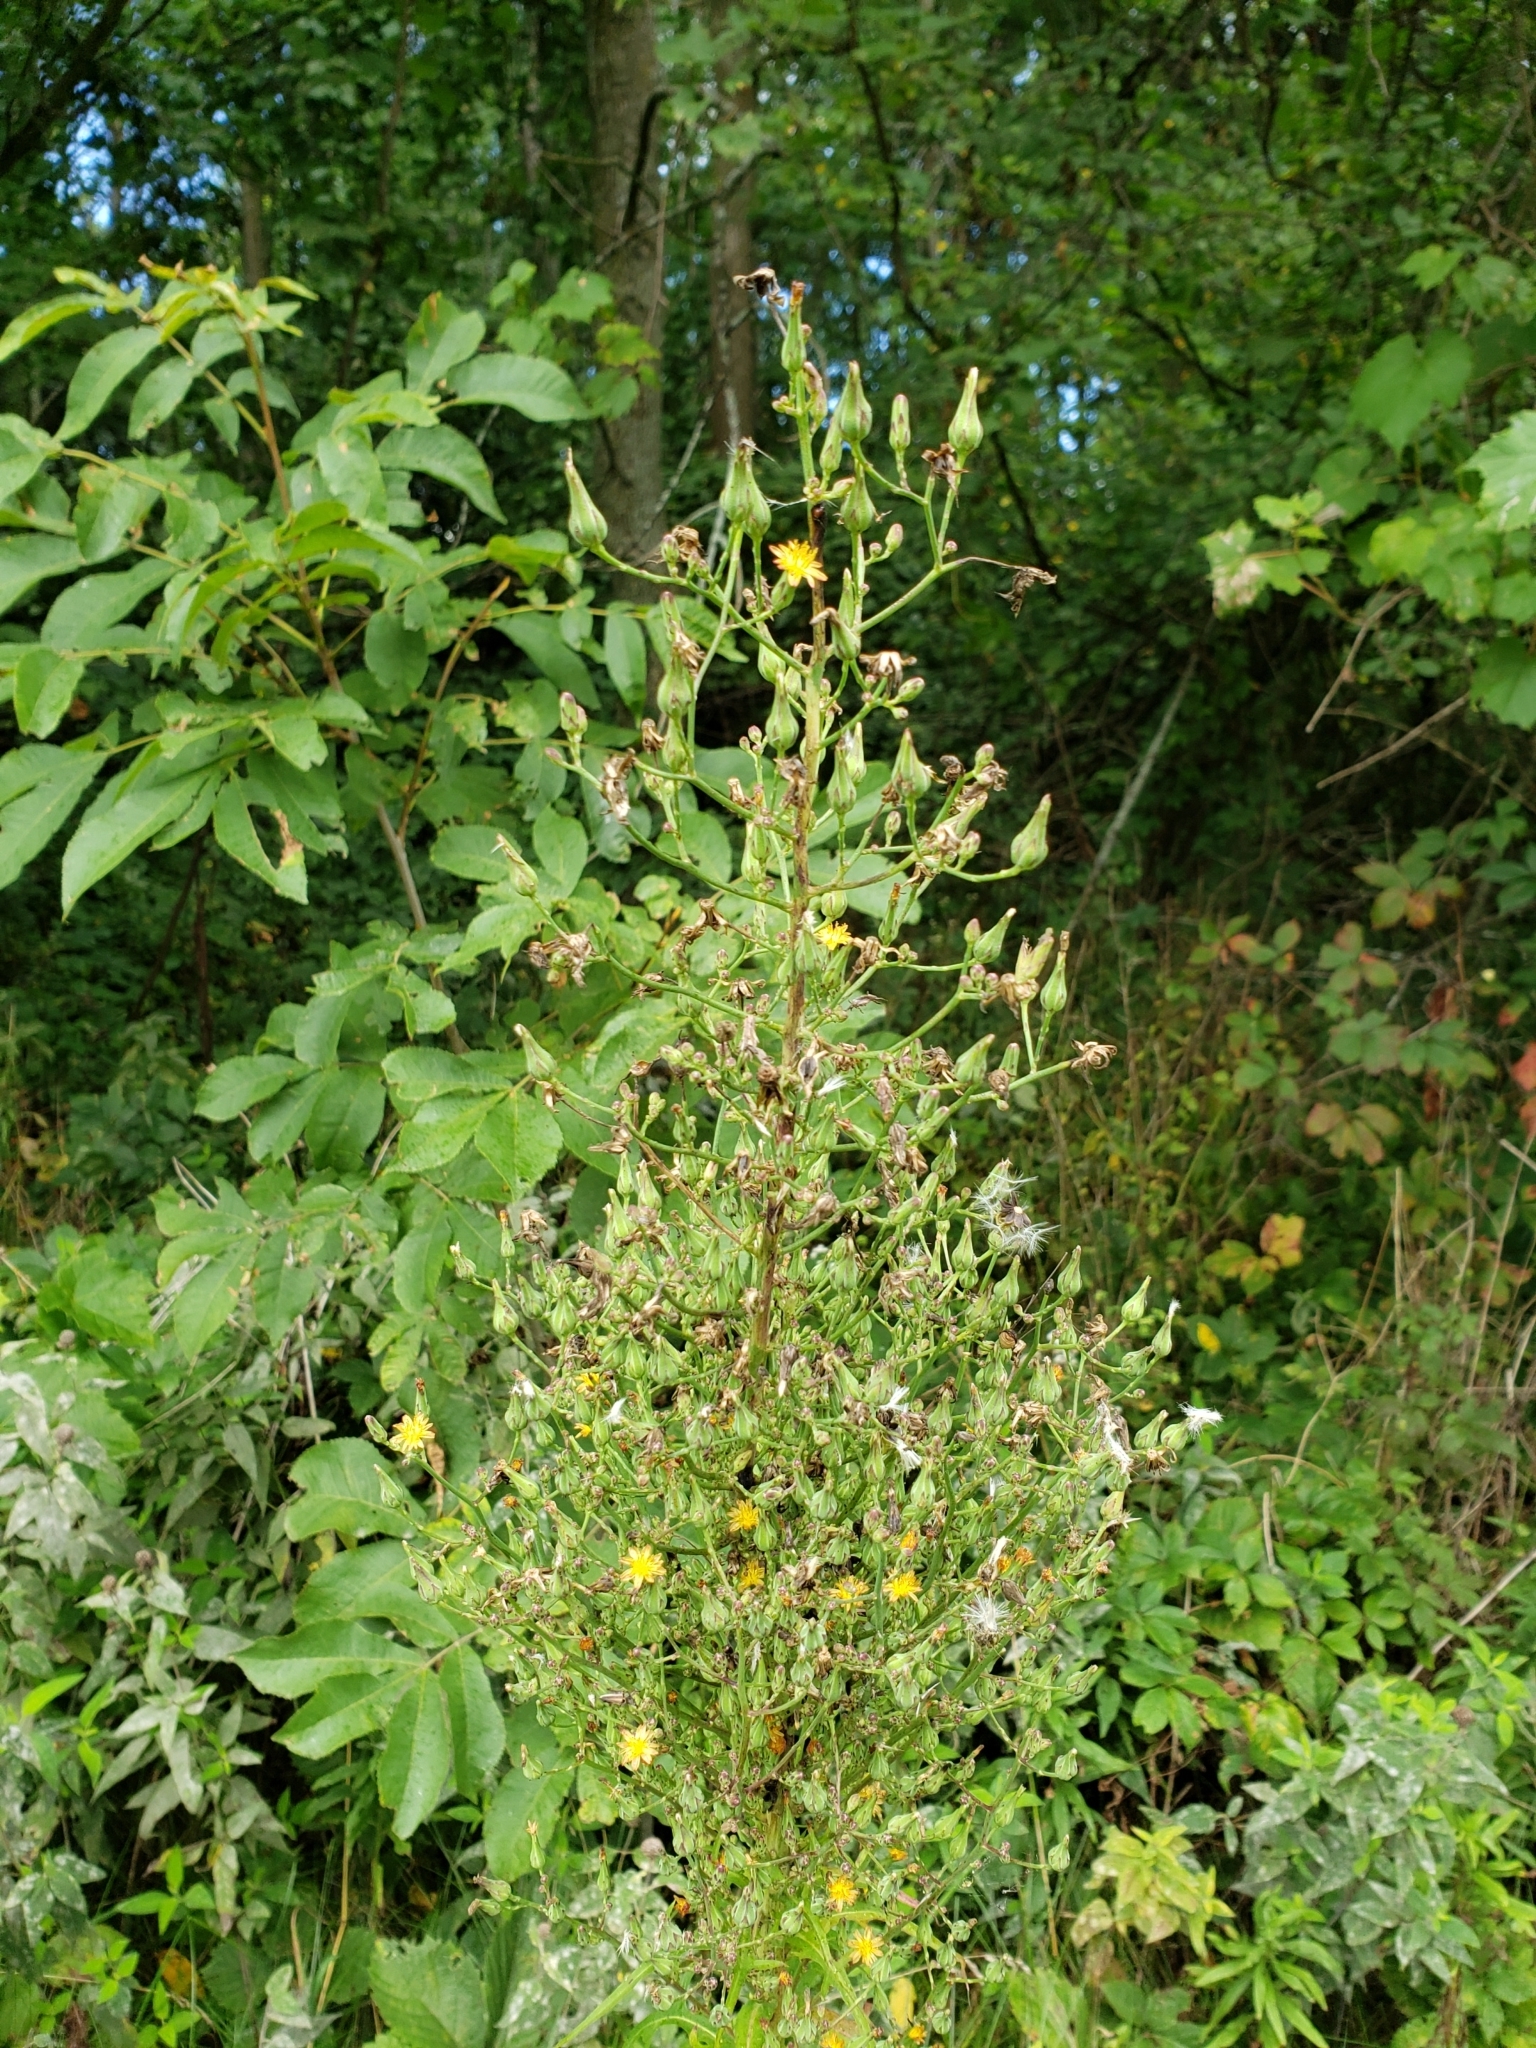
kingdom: Plantae
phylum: Tracheophyta
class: Magnoliopsida
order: Asterales
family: Asteraceae
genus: Lactuca
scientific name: Lactuca canadensis
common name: Canada lettuce
